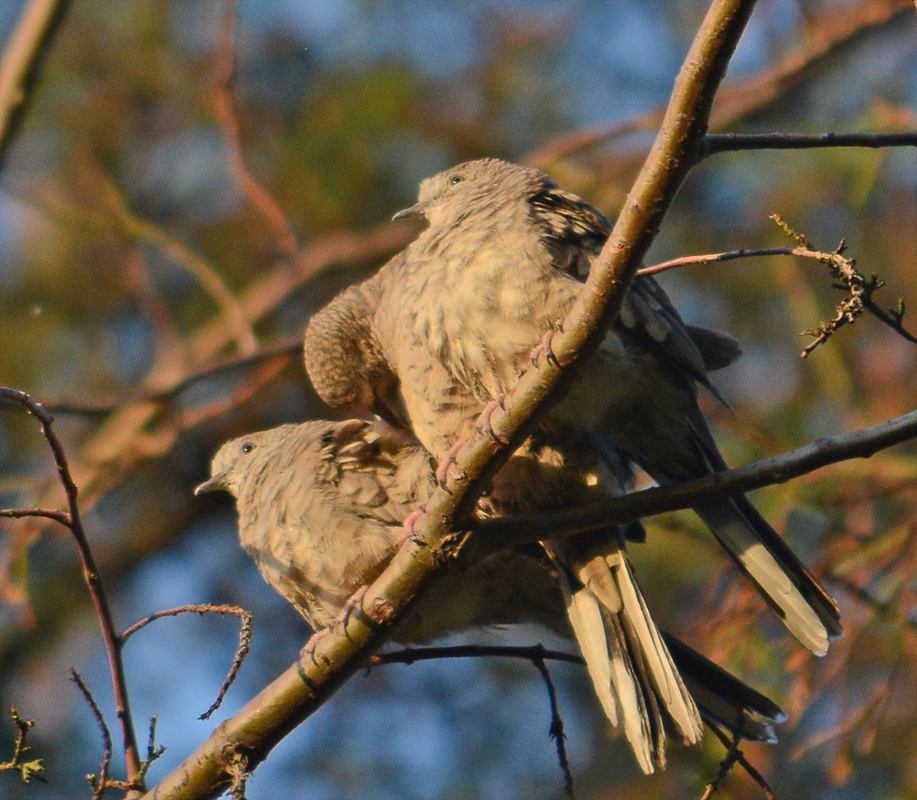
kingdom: Animalia
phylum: Chordata
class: Aves
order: Columbiformes
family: Columbidae
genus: Columbina
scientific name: Columbina inca
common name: Inca dove
